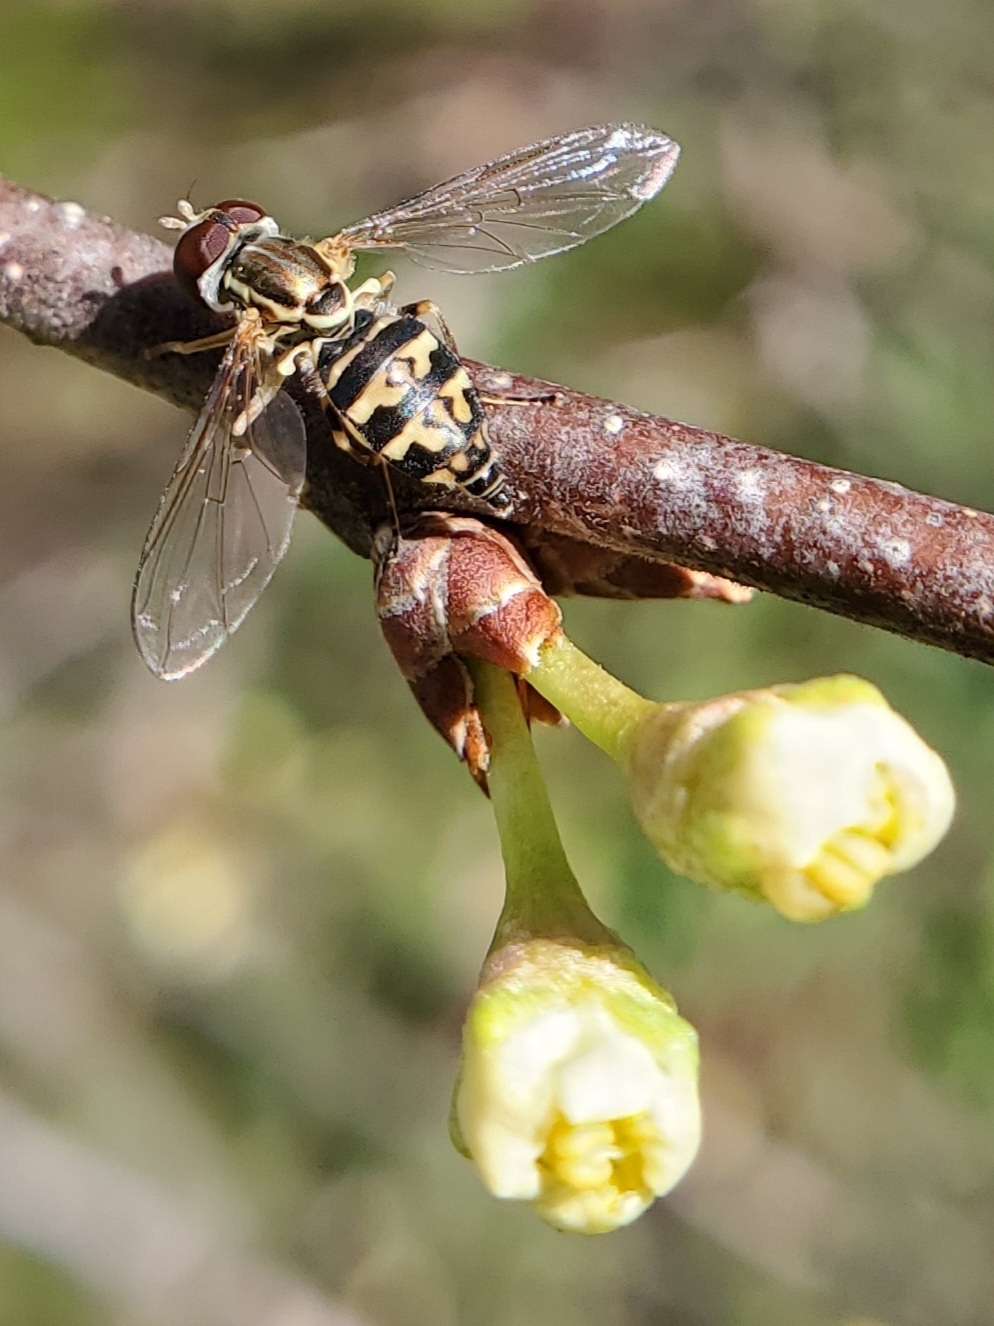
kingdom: Animalia
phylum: Arthropoda
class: Insecta
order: Diptera
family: Syrphidae
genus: Toxomerus
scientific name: Toxomerus geminatus
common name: Eastern calligrapher
